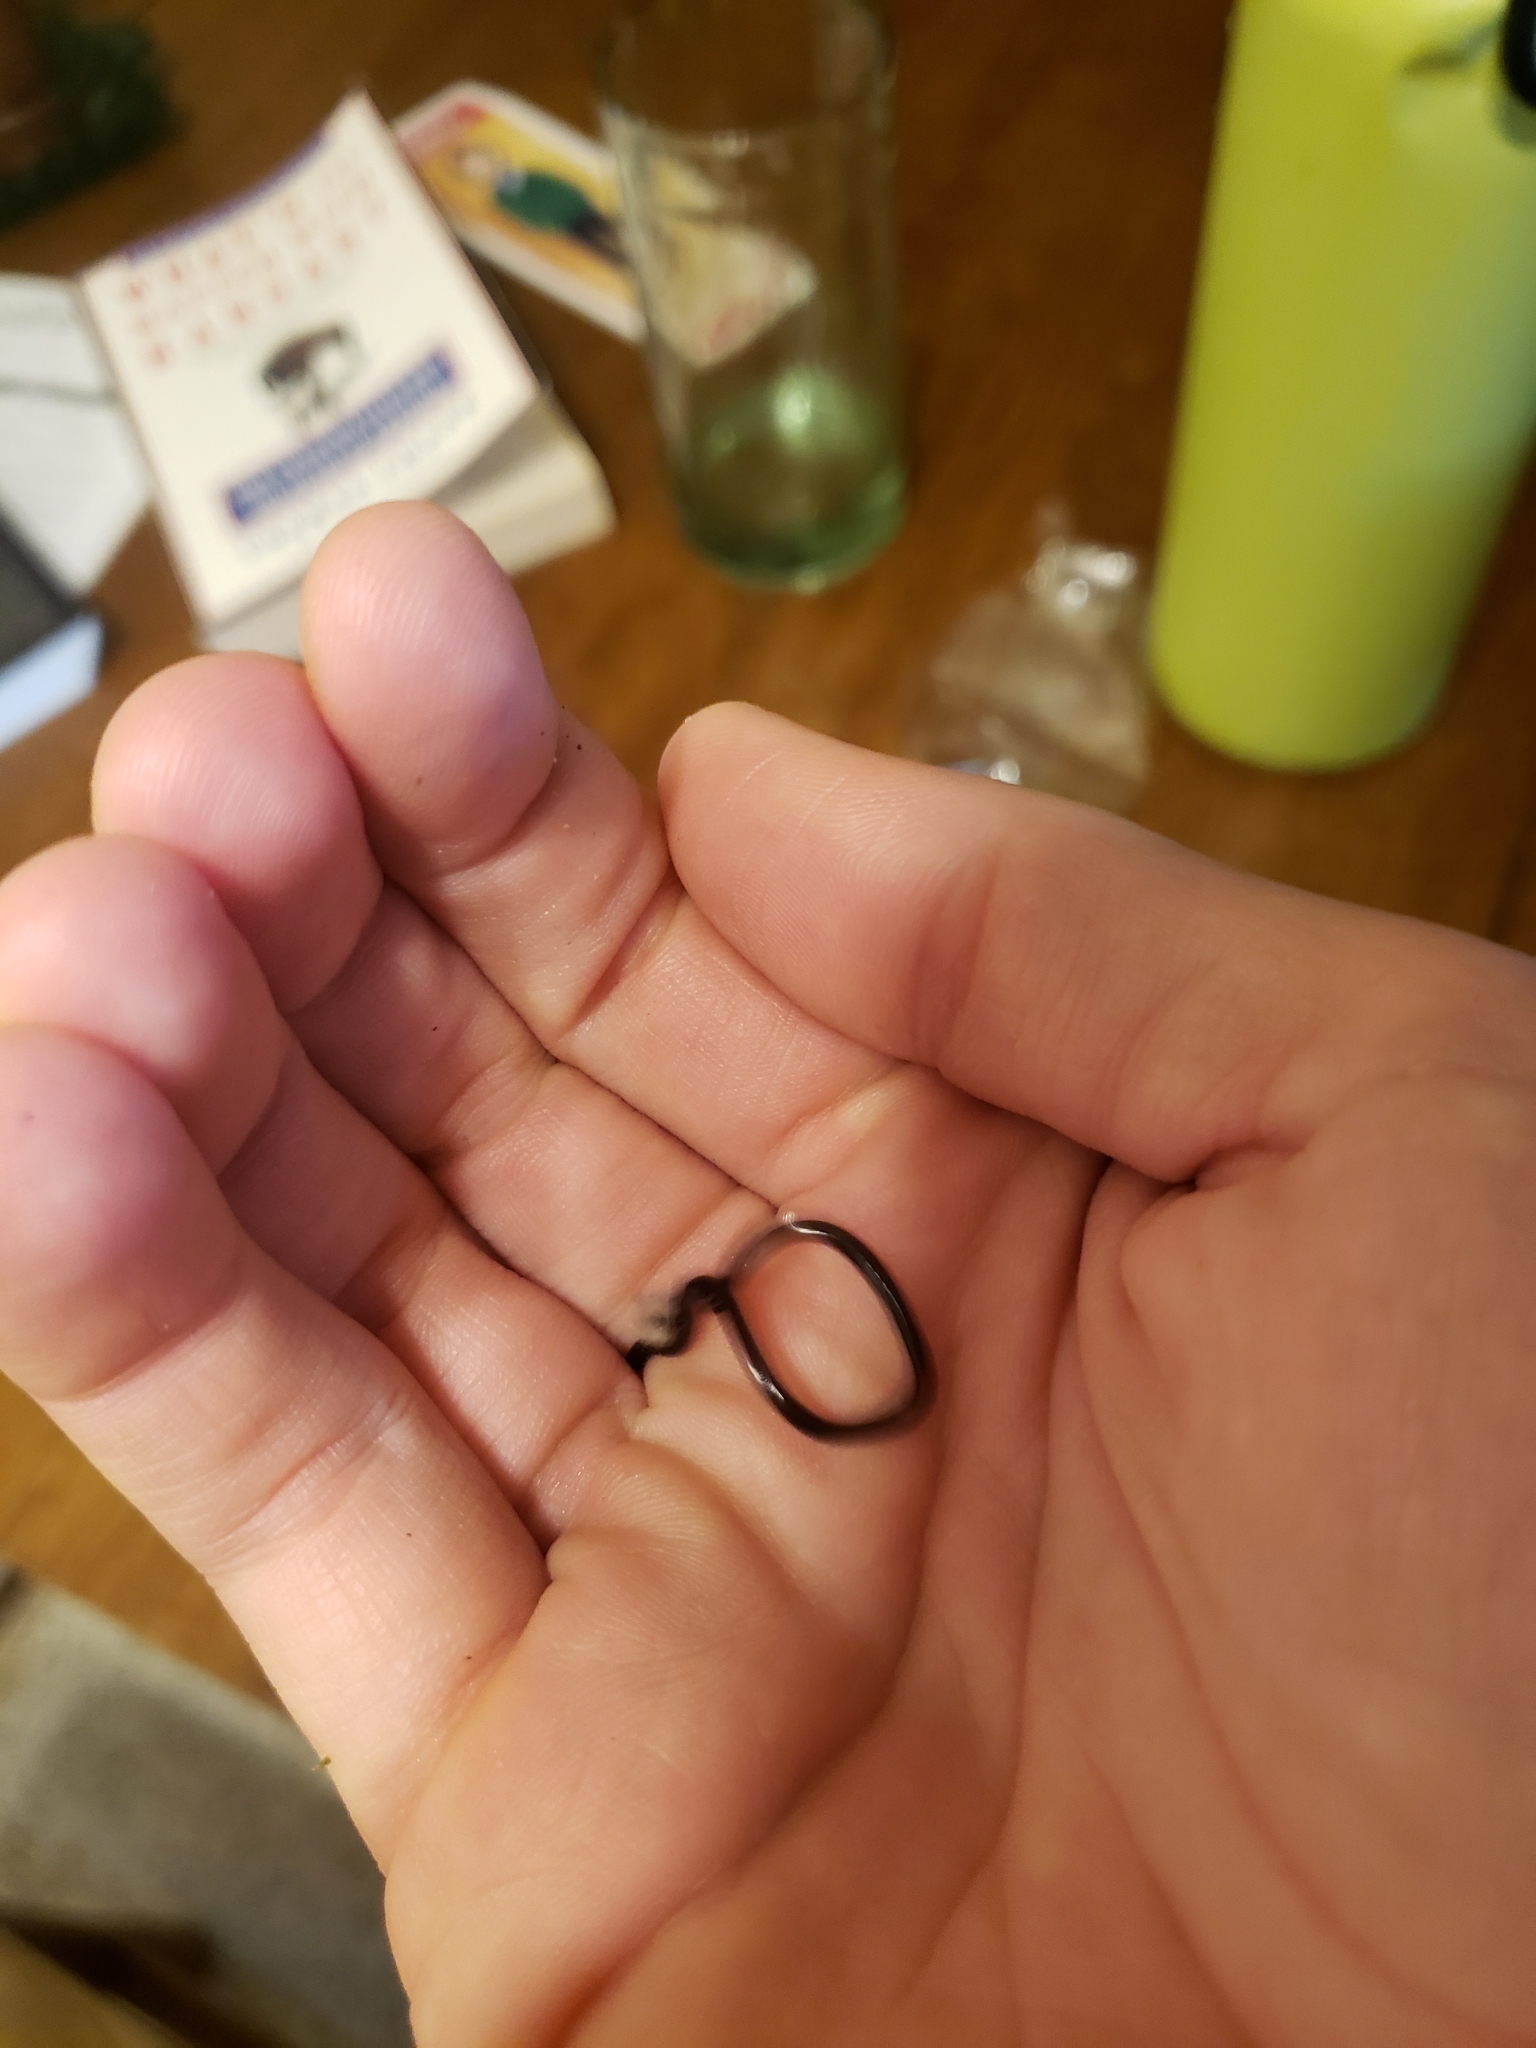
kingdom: Animalia
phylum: Chordata
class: Squamata
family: Typhlopidae
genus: Indotyphlops
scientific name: Indotyphlops braminus
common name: Brahminy blindsnake
